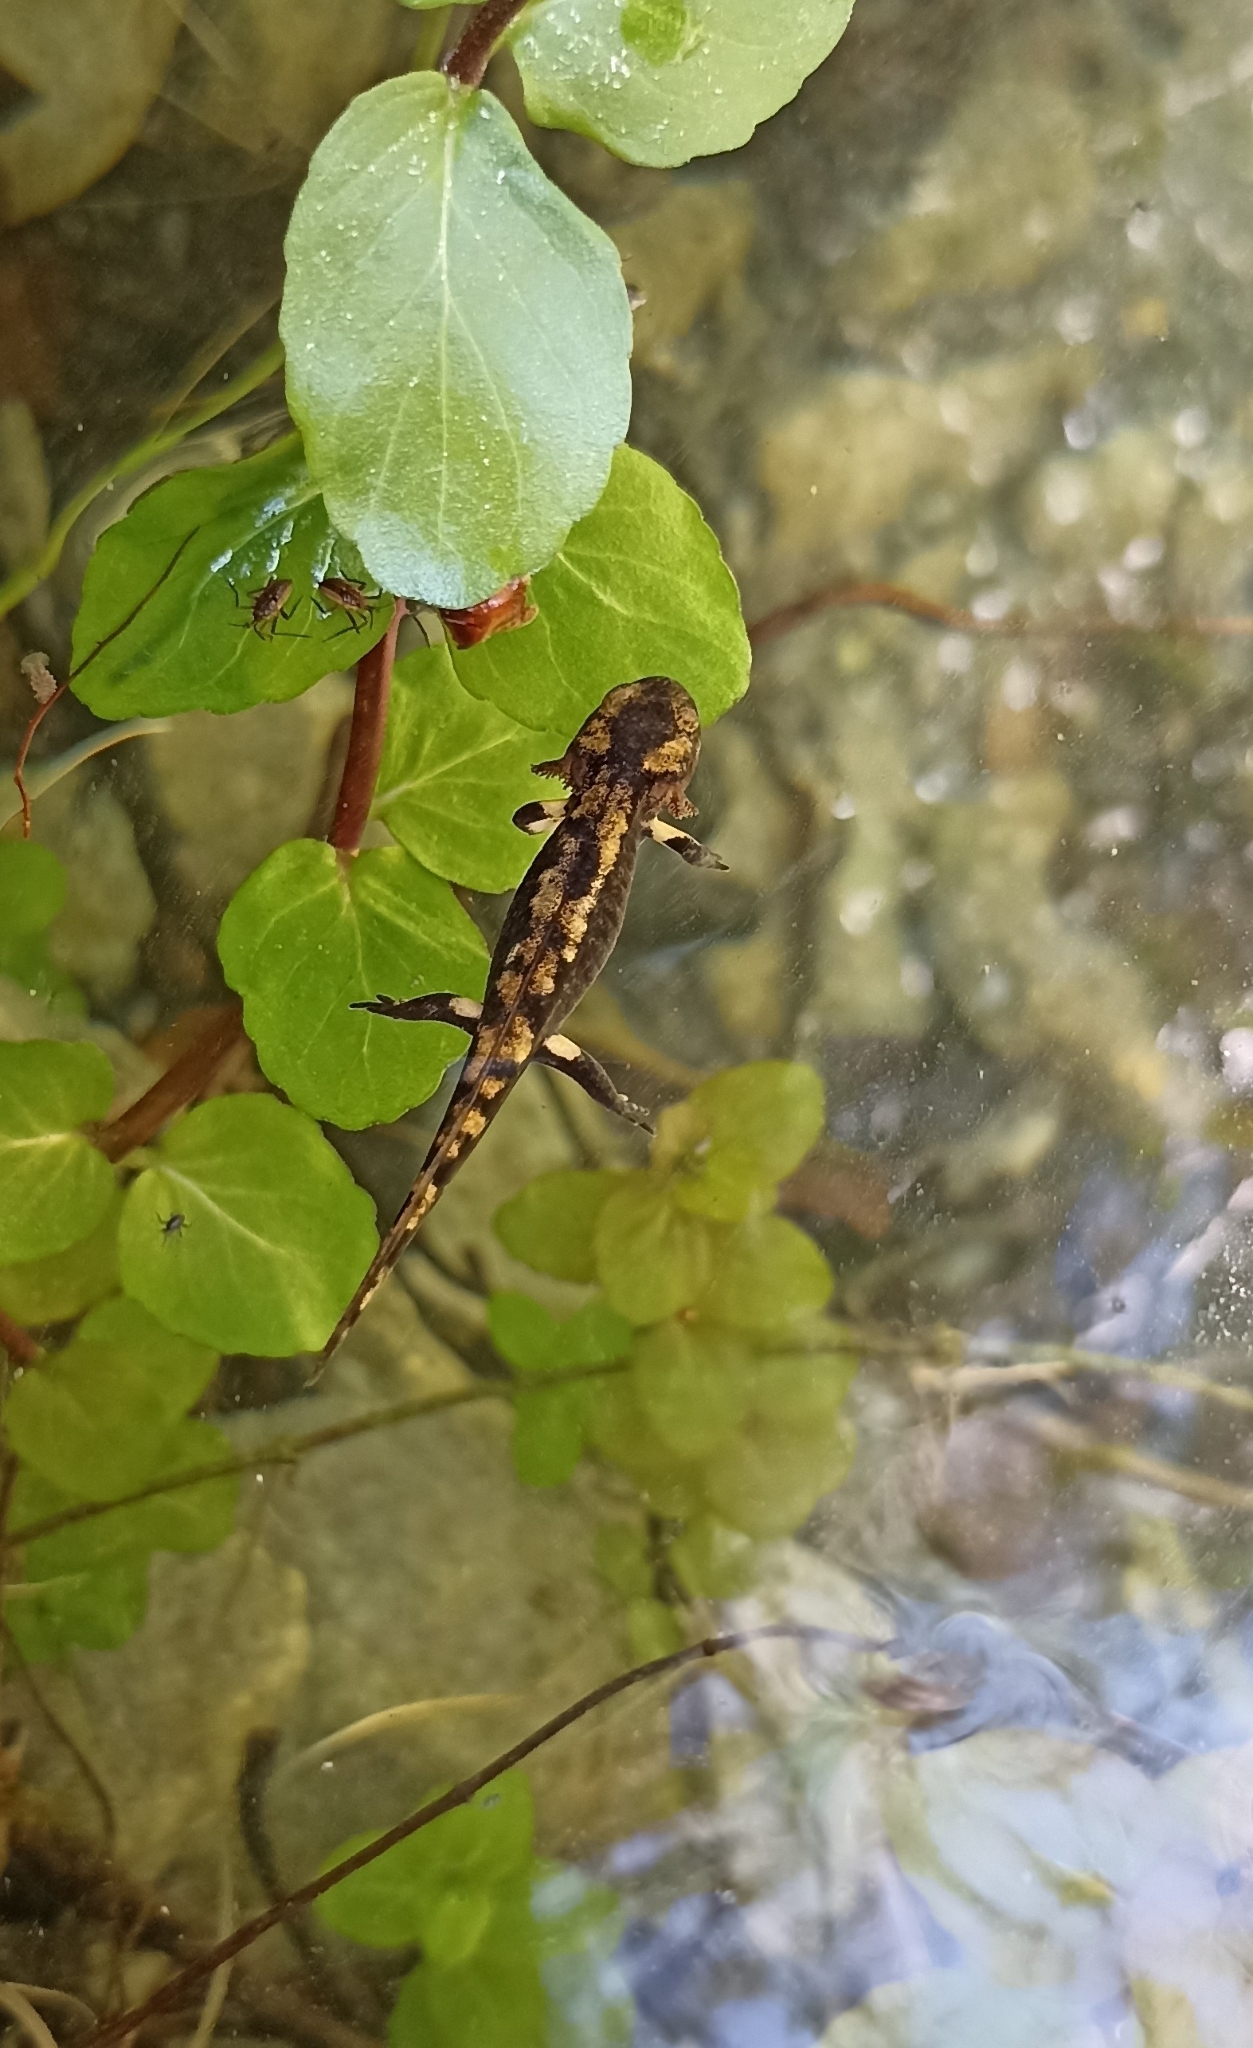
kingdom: Animalia
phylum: Chordata
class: Amphibia
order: Caudata
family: Salamandridae
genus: Salamandra
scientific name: Salamandra salamandra
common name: Fire salamander
